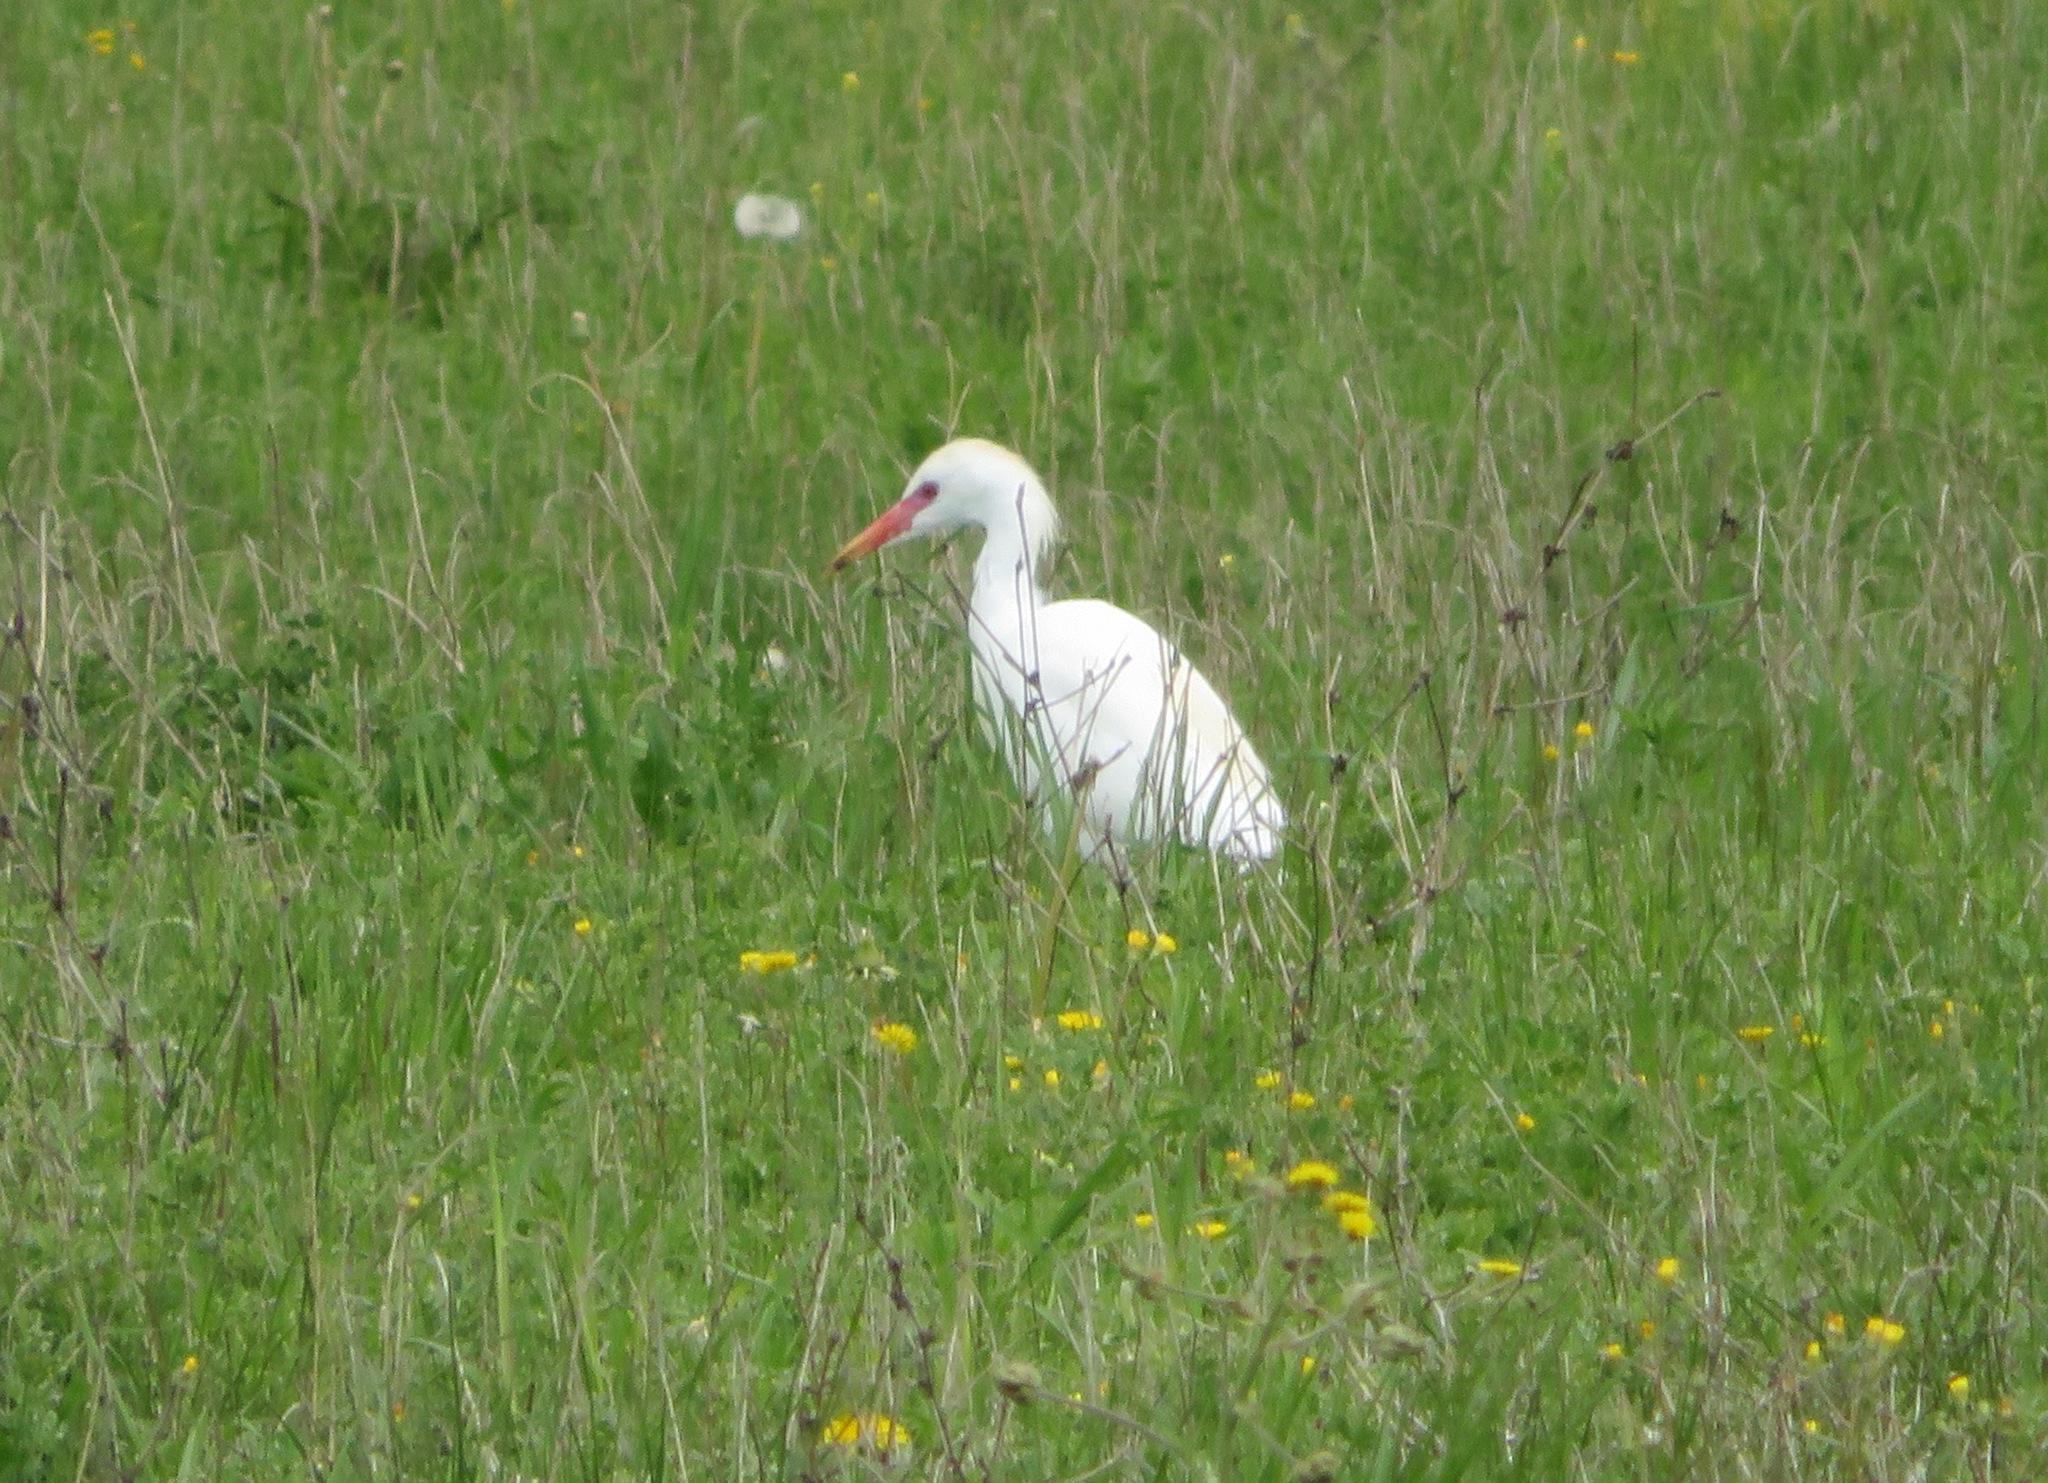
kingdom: Animalia
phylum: Chordata
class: Aves
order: Pelecaniformes
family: Ardeidae
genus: Bubulcus
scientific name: Bubulcus ibis
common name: Cattle egret
